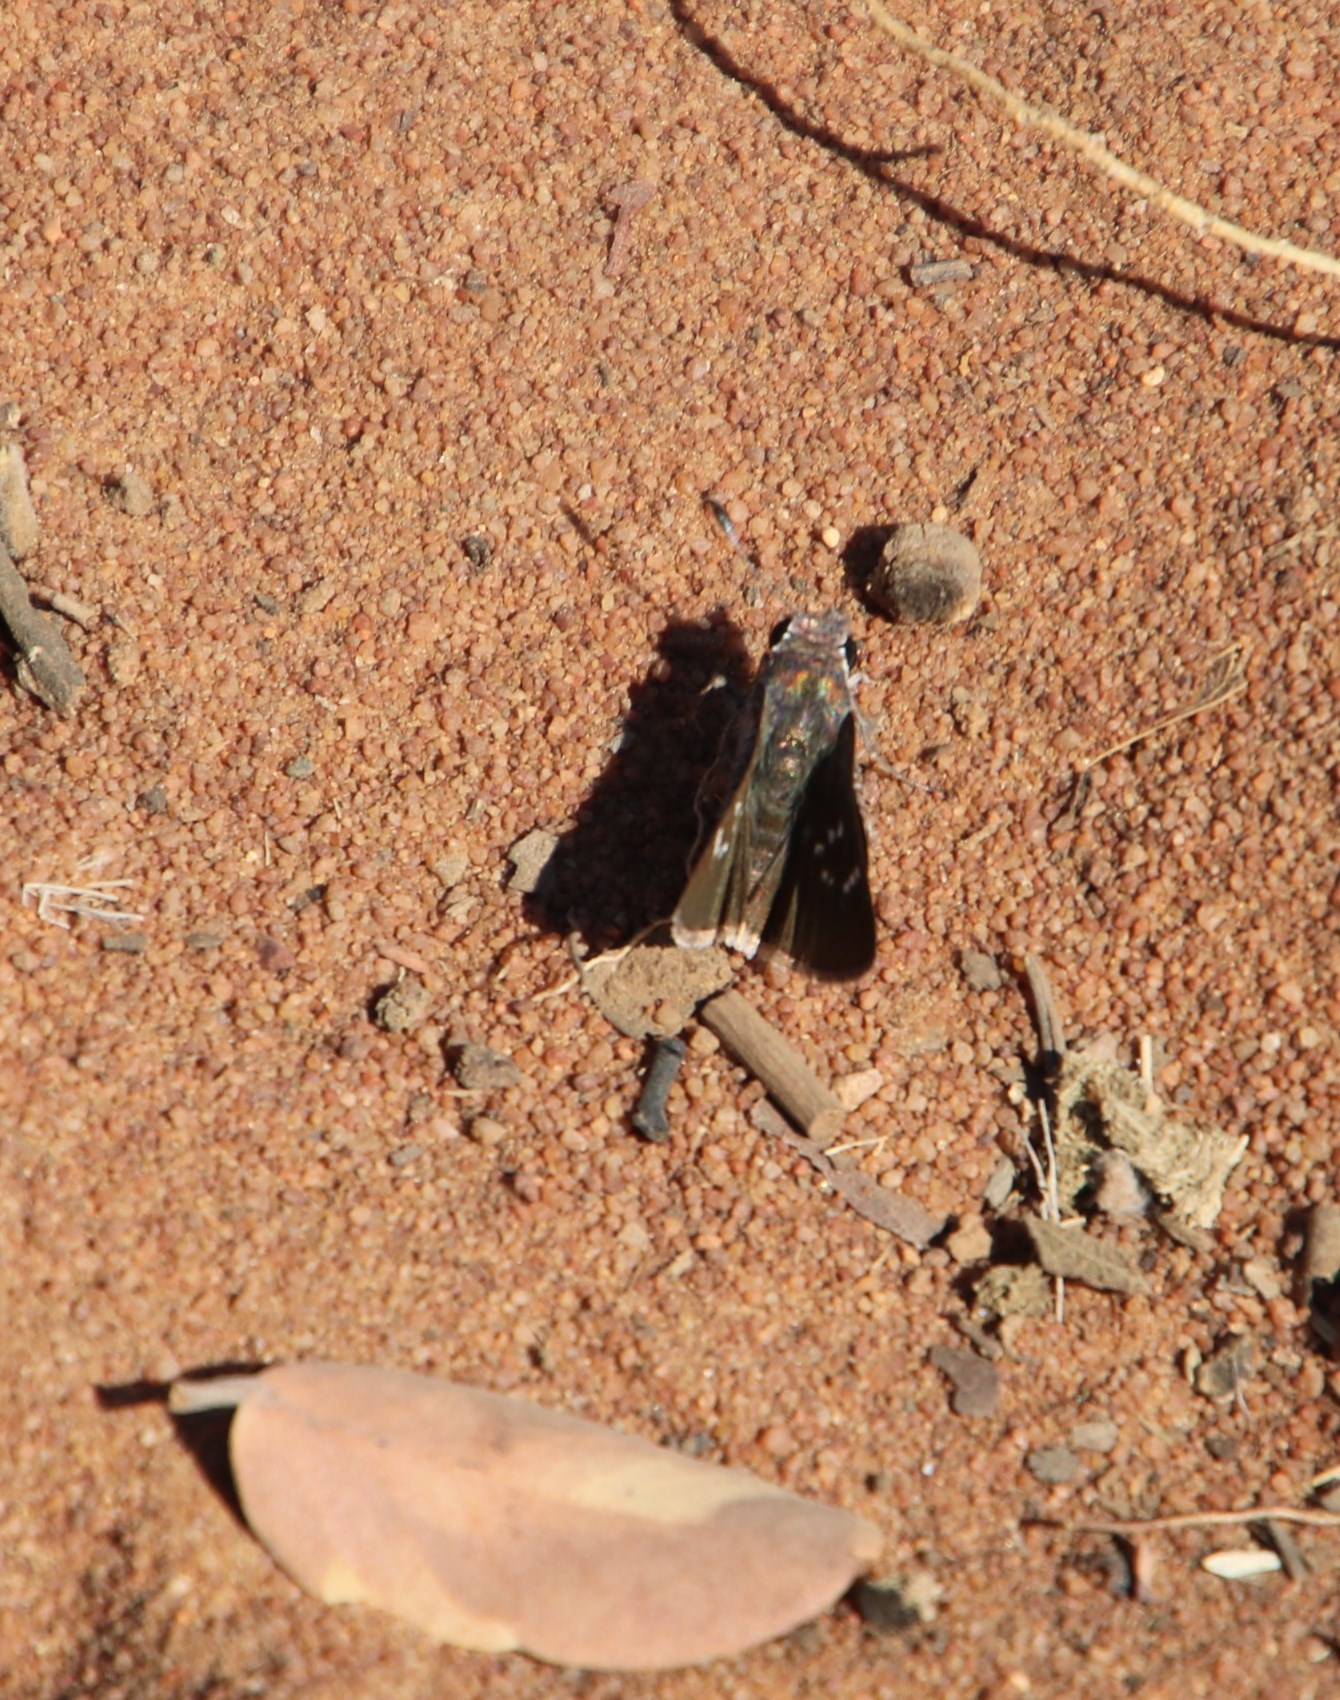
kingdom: Animalia
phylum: Arthropoda
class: Insecta
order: Lepidoptera
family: Hesperiidae
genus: Platylesches
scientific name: Platylesches ayresii
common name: Peppered hopper
